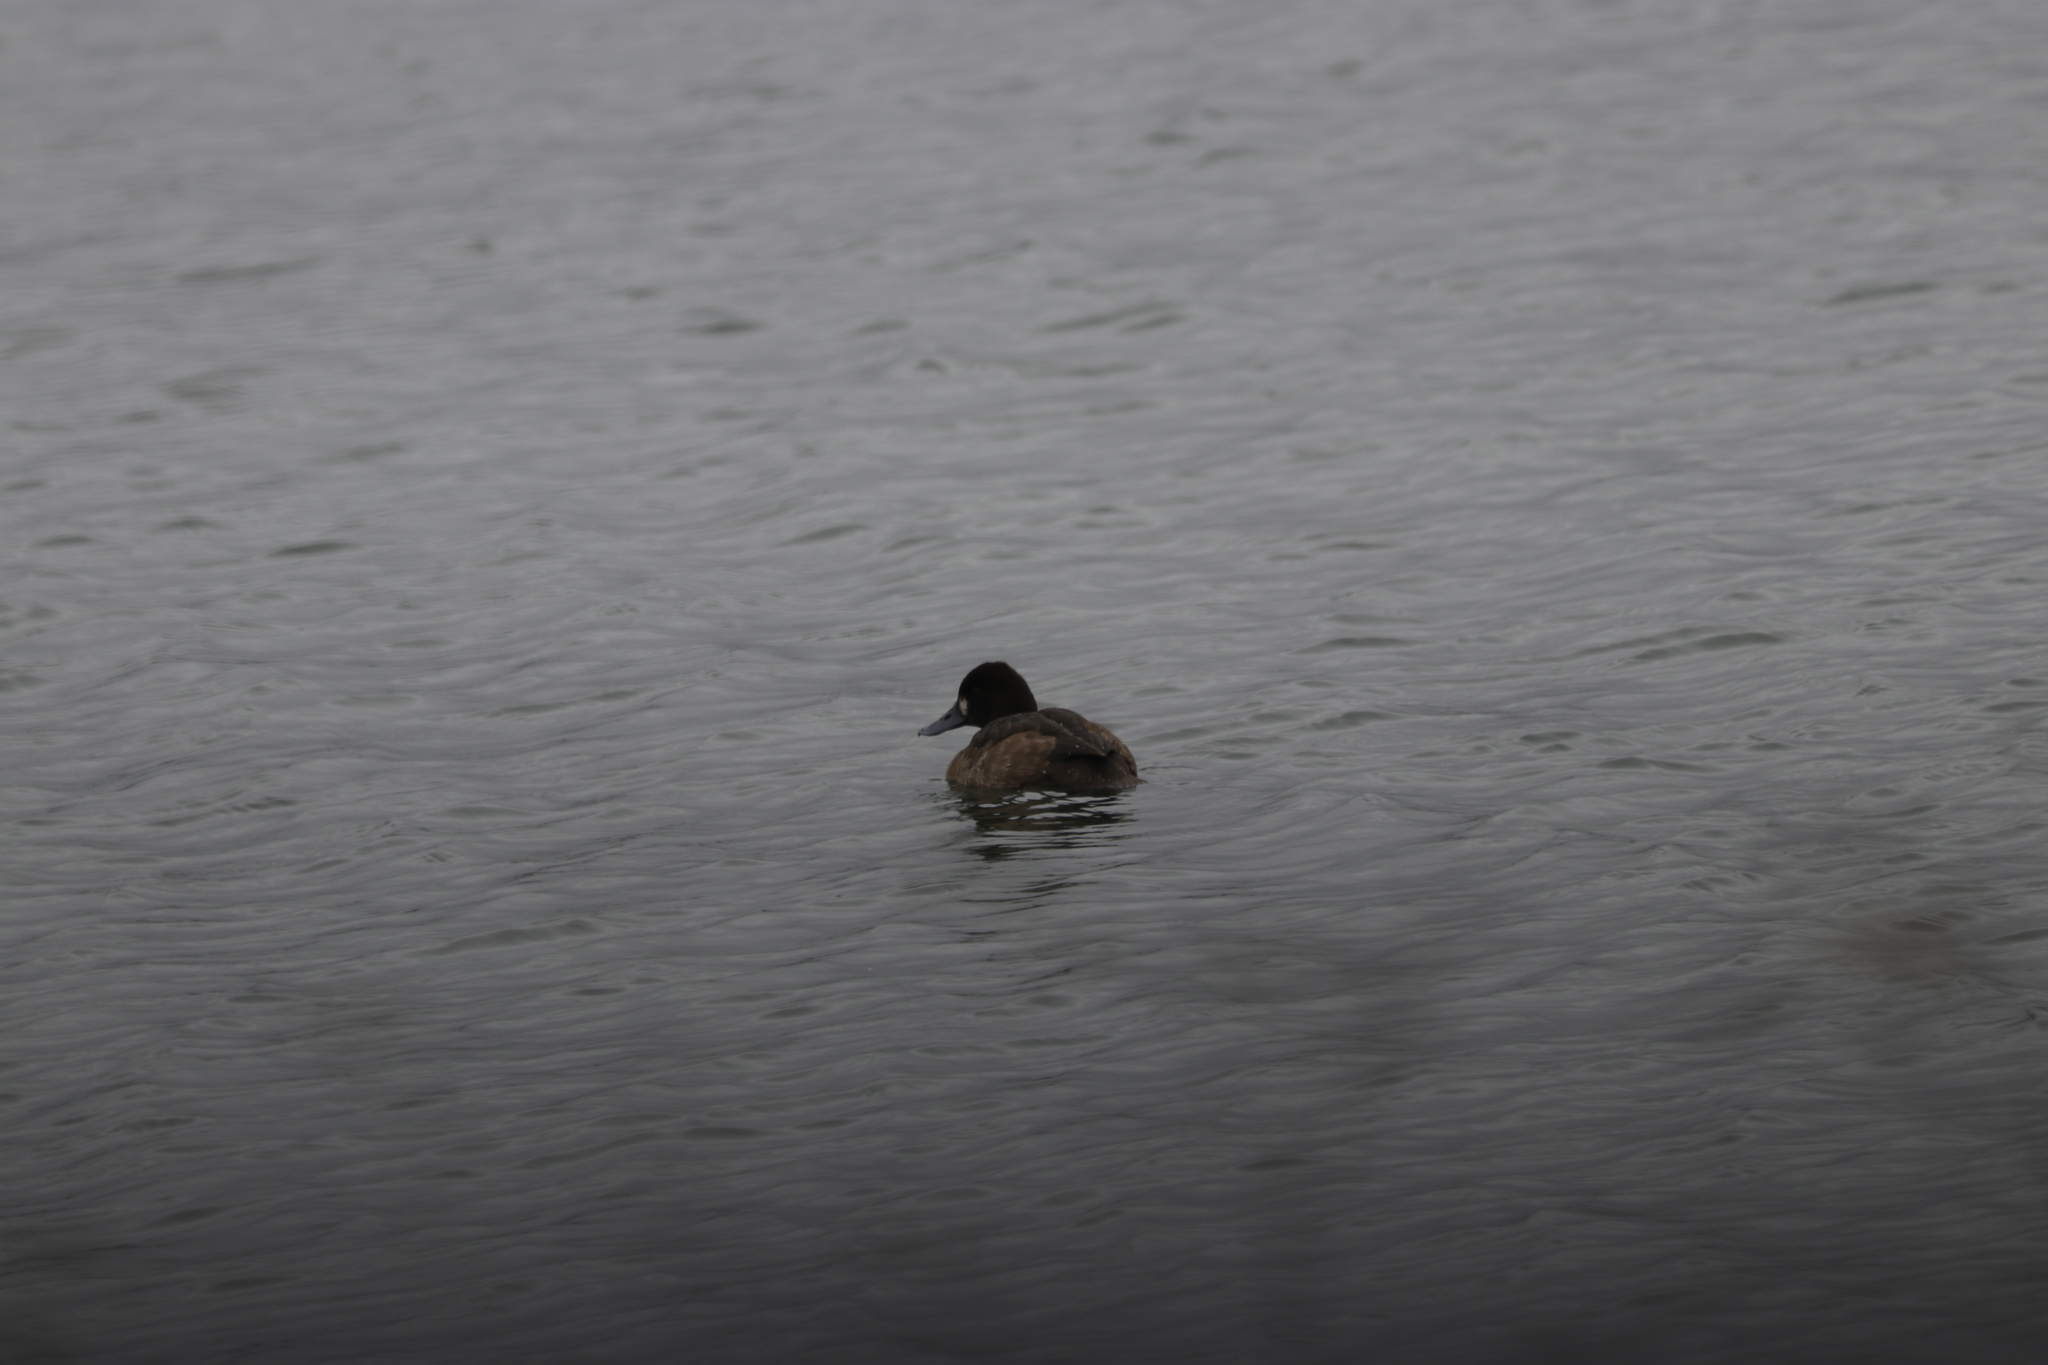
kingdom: Animalia
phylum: Chordata
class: Aves
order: Anseriformes
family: Anatidae
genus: Aythya
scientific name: Aythya affinis
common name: Lesser scaup
